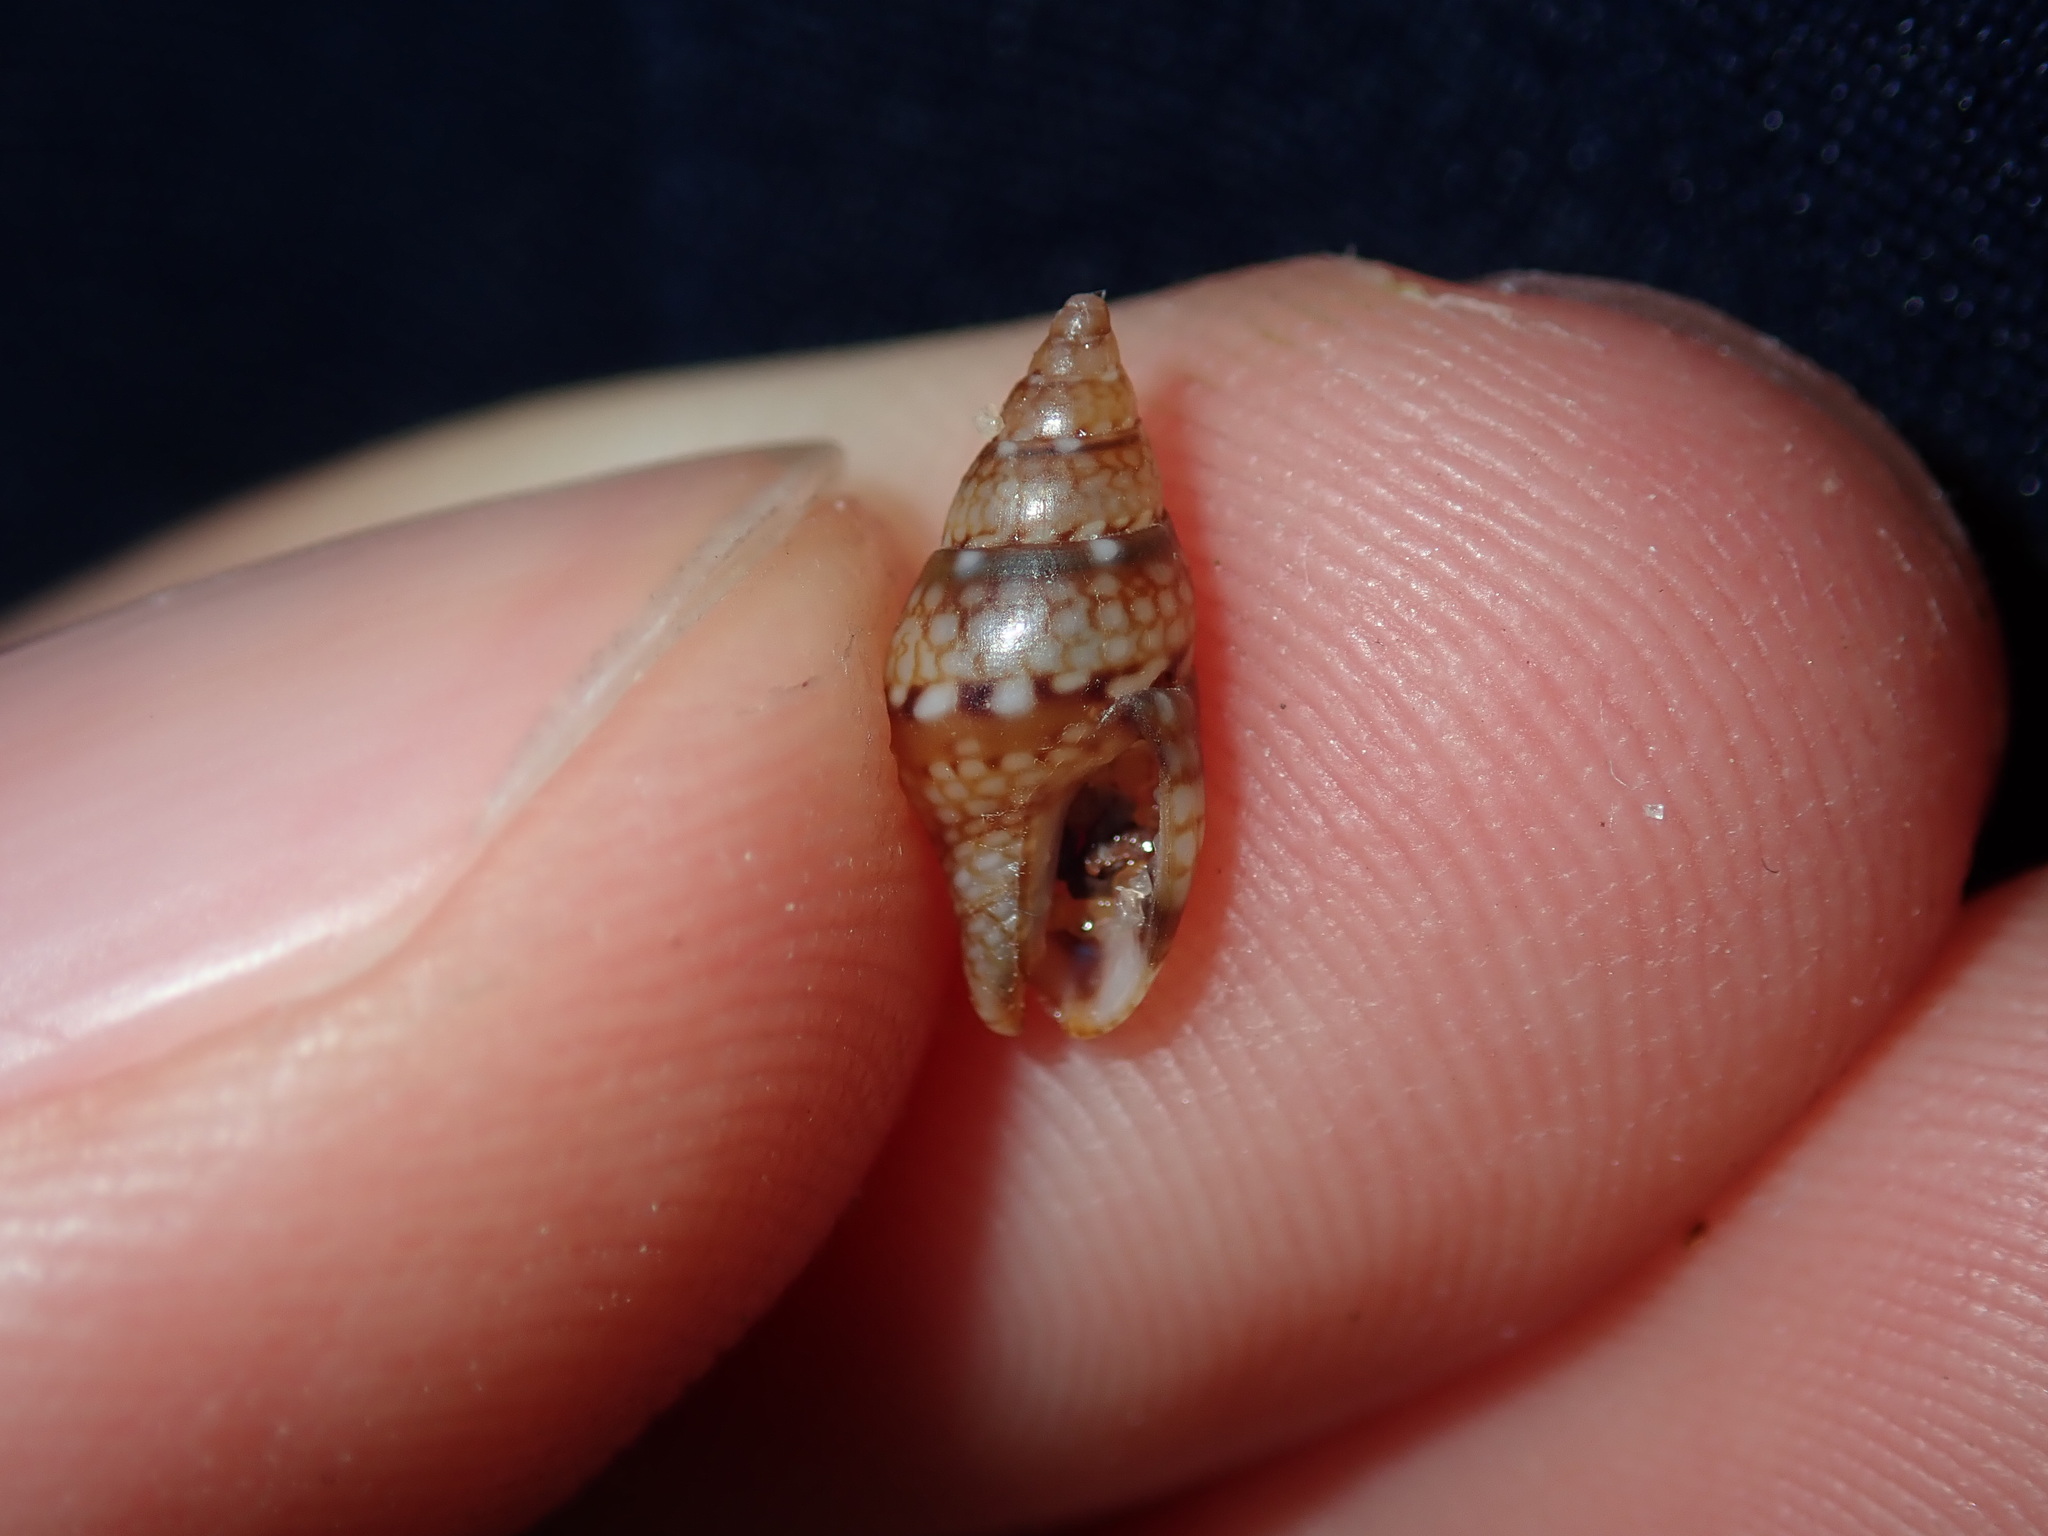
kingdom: Animalia
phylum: Mollusca
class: Gastropoda
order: Neogastropoda
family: Columbellidae
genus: Pseudamycla
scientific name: Pseudamycla dermestoidea
